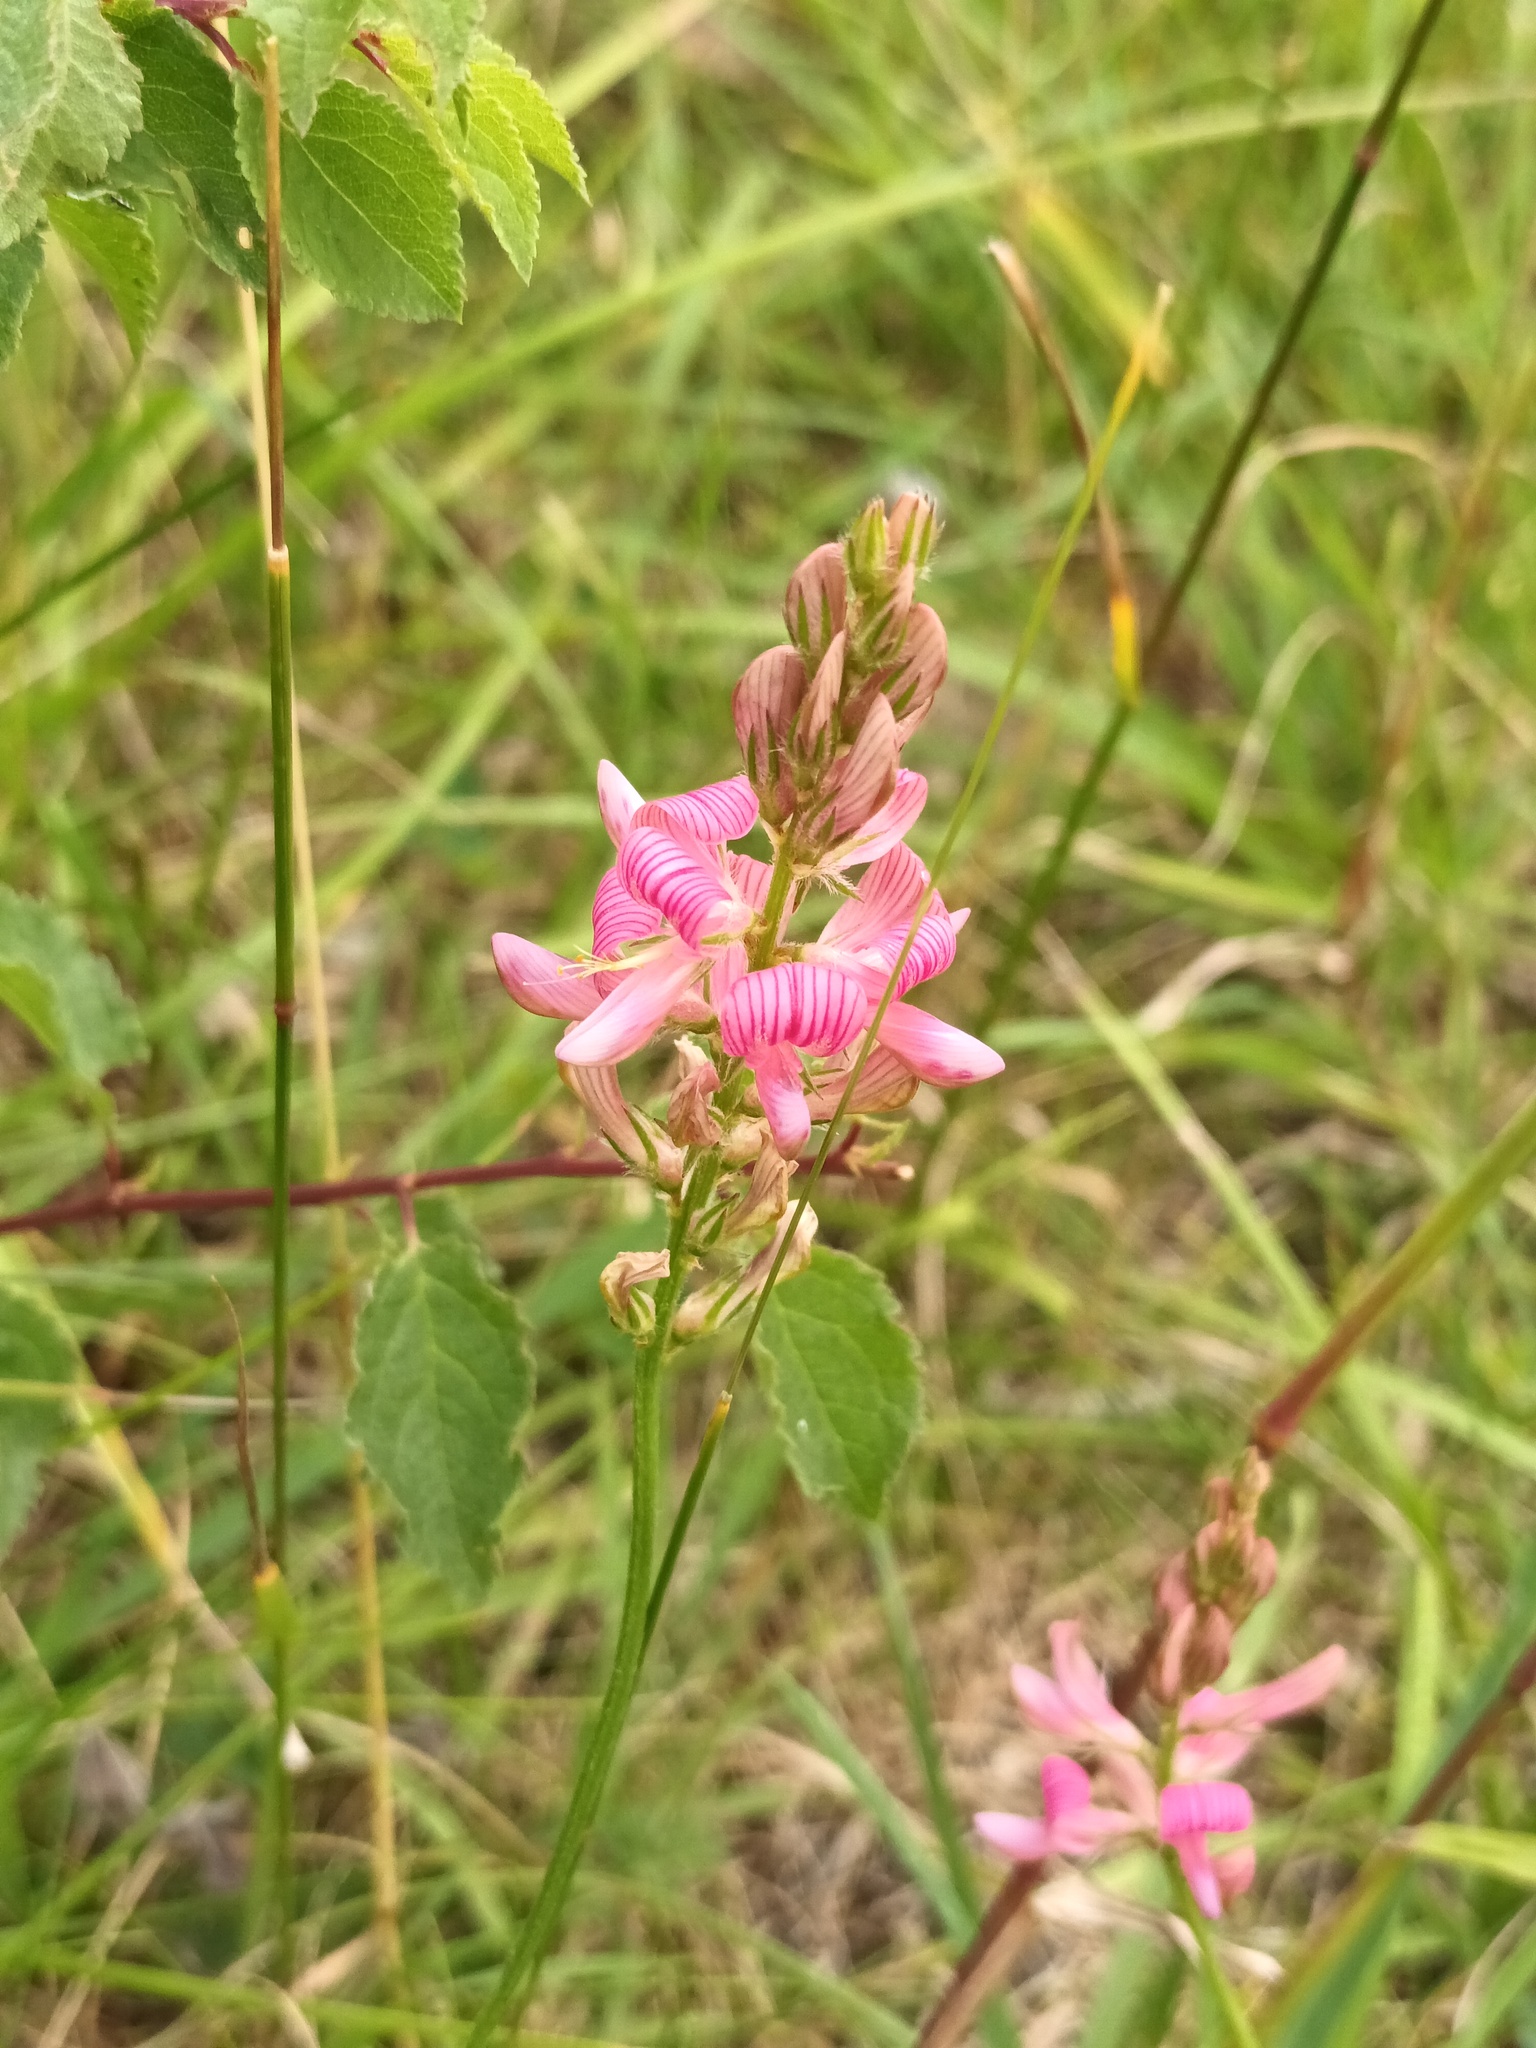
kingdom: Plantae
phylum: Tracheophyta
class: Magnoliopsida
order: Fabales
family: Fabaceae
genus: Onobrychis
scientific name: Onobrychis viciifolia
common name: Sainfoin
